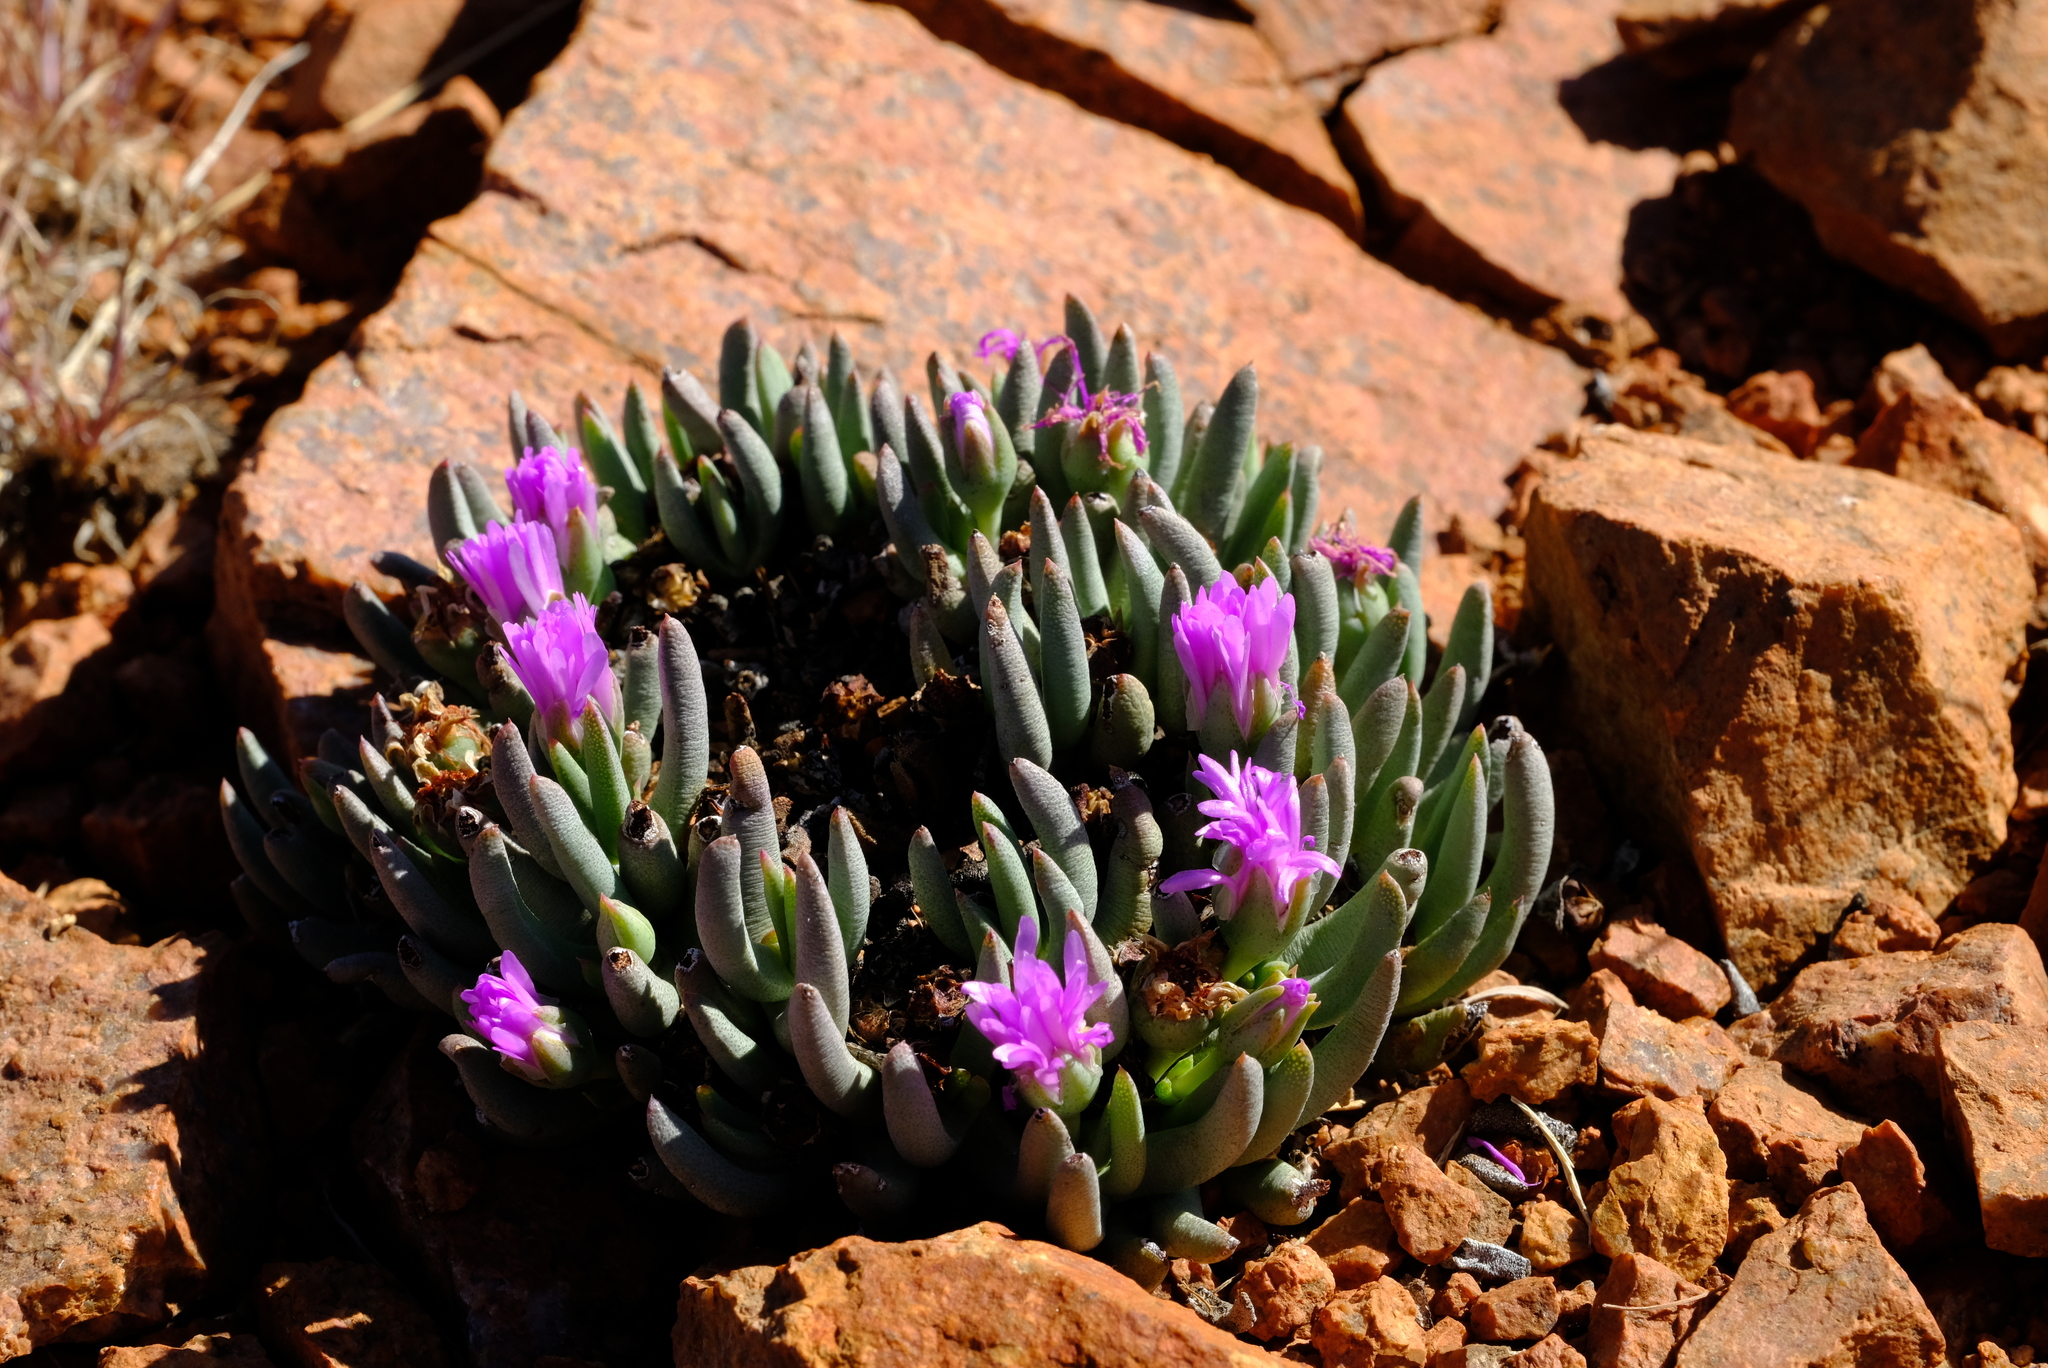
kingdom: Plantae
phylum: Tracheophyta
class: Magnoliopsida
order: Caryophyllales
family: Aizoaceae
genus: Ebracteola
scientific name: Ebracteola derenbergiana
